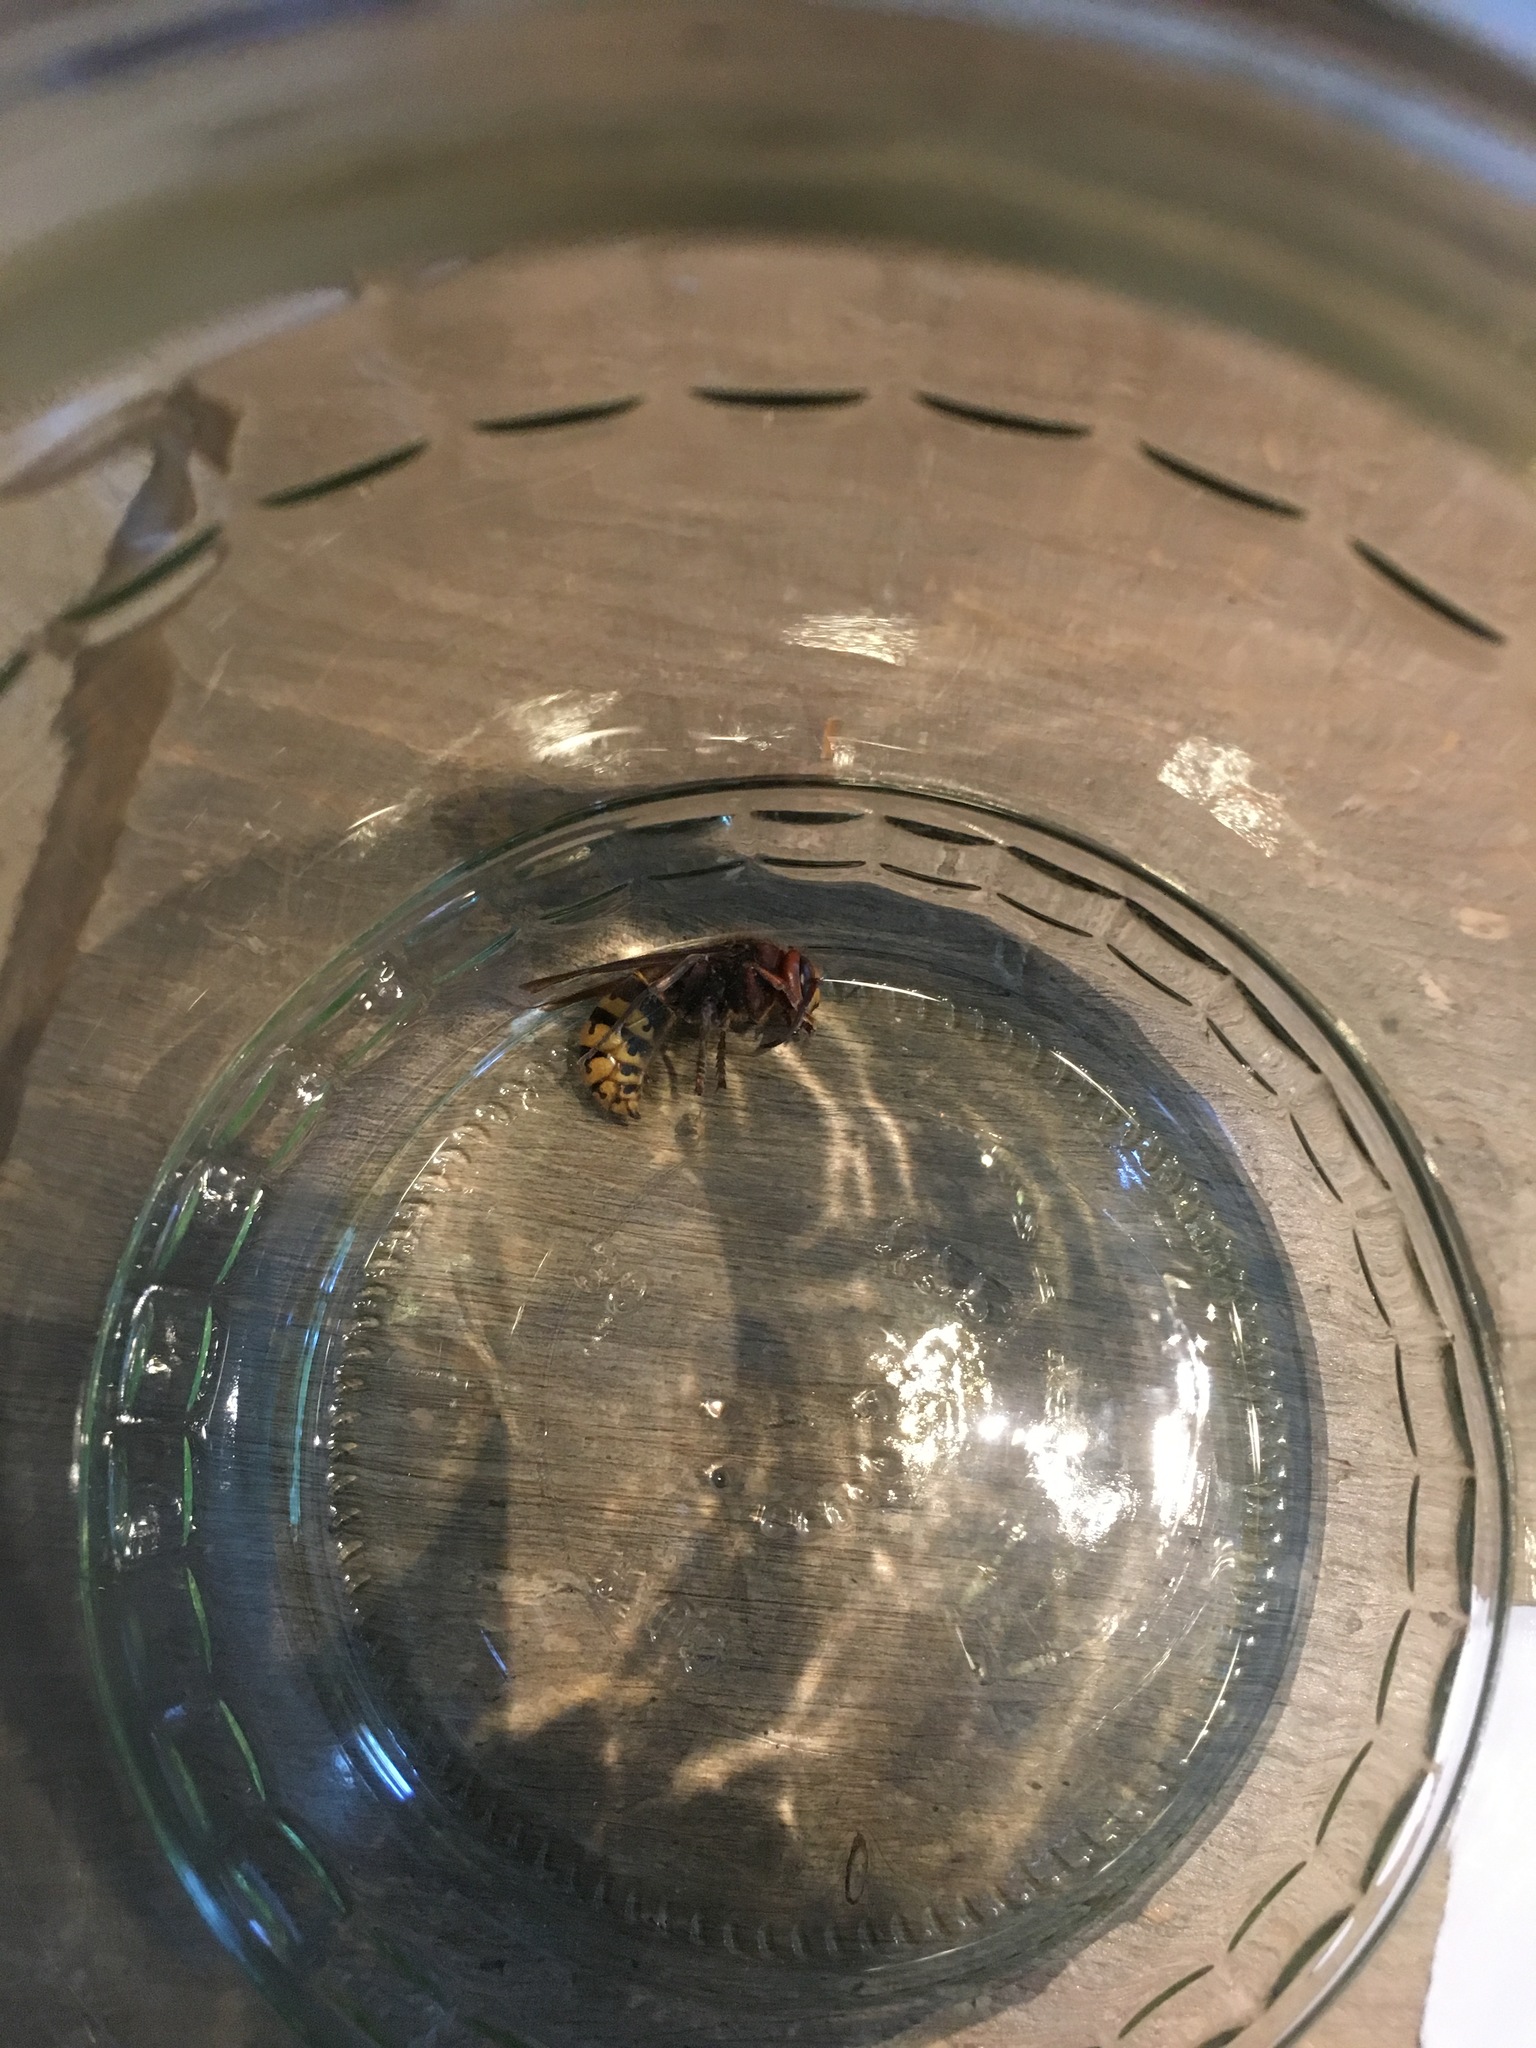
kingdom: Animalia
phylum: Arthropoda
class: Insecta
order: Hymenoptera
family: Vespidae
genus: Vespa
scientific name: Vespa crabro
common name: Hornet
